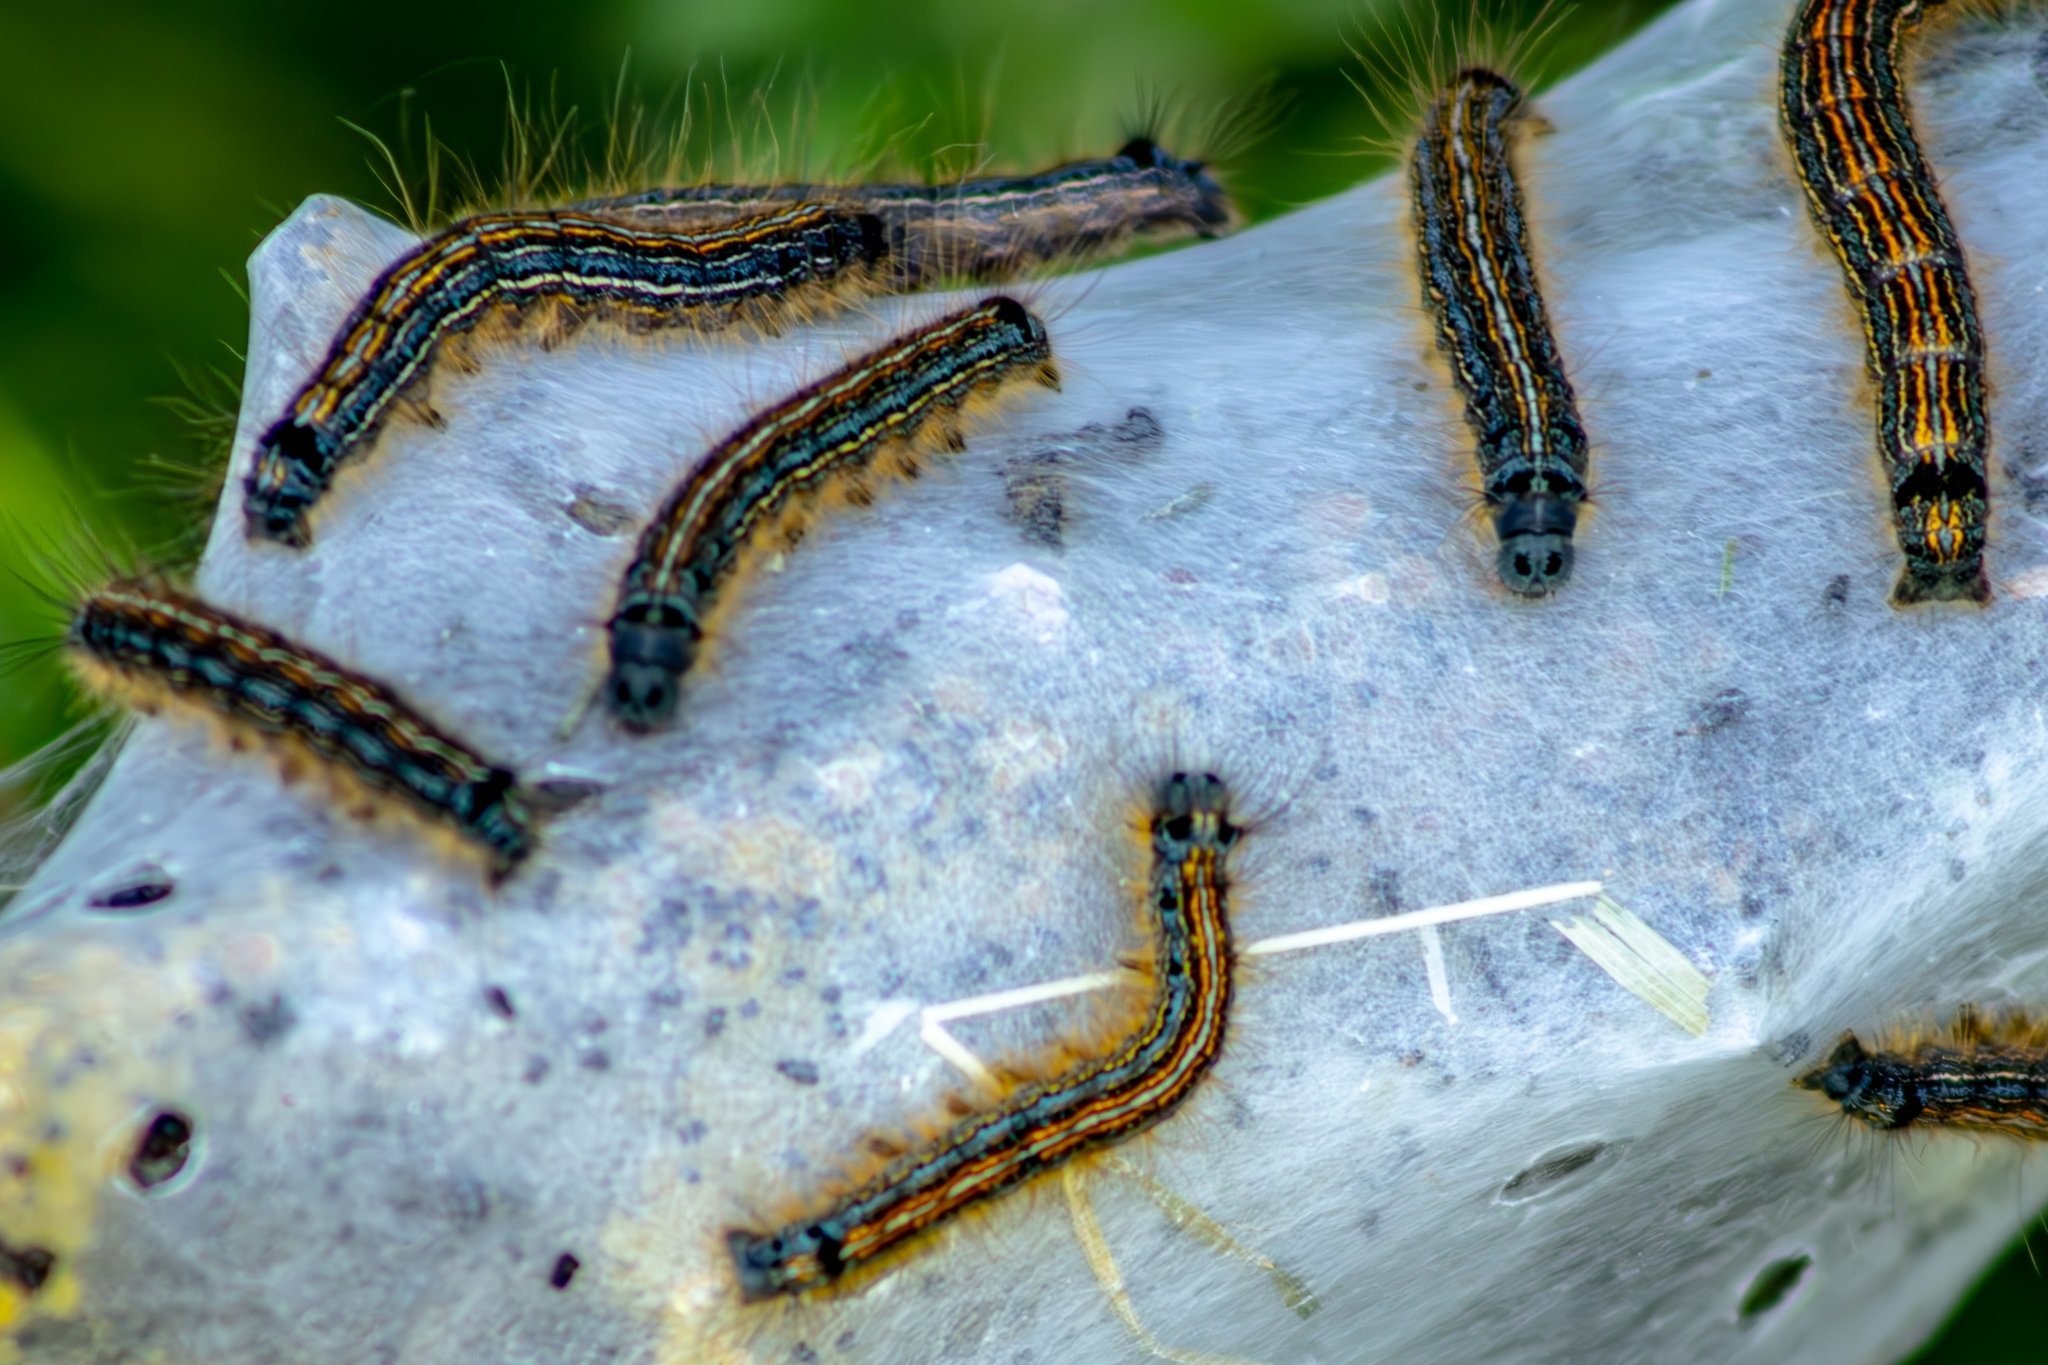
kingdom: Animalia
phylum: Arthropoda
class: Insecta
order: Lepidoptera
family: Lasiocampidae
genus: Malacosoma
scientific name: Malacosoma neustria
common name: The lackey
